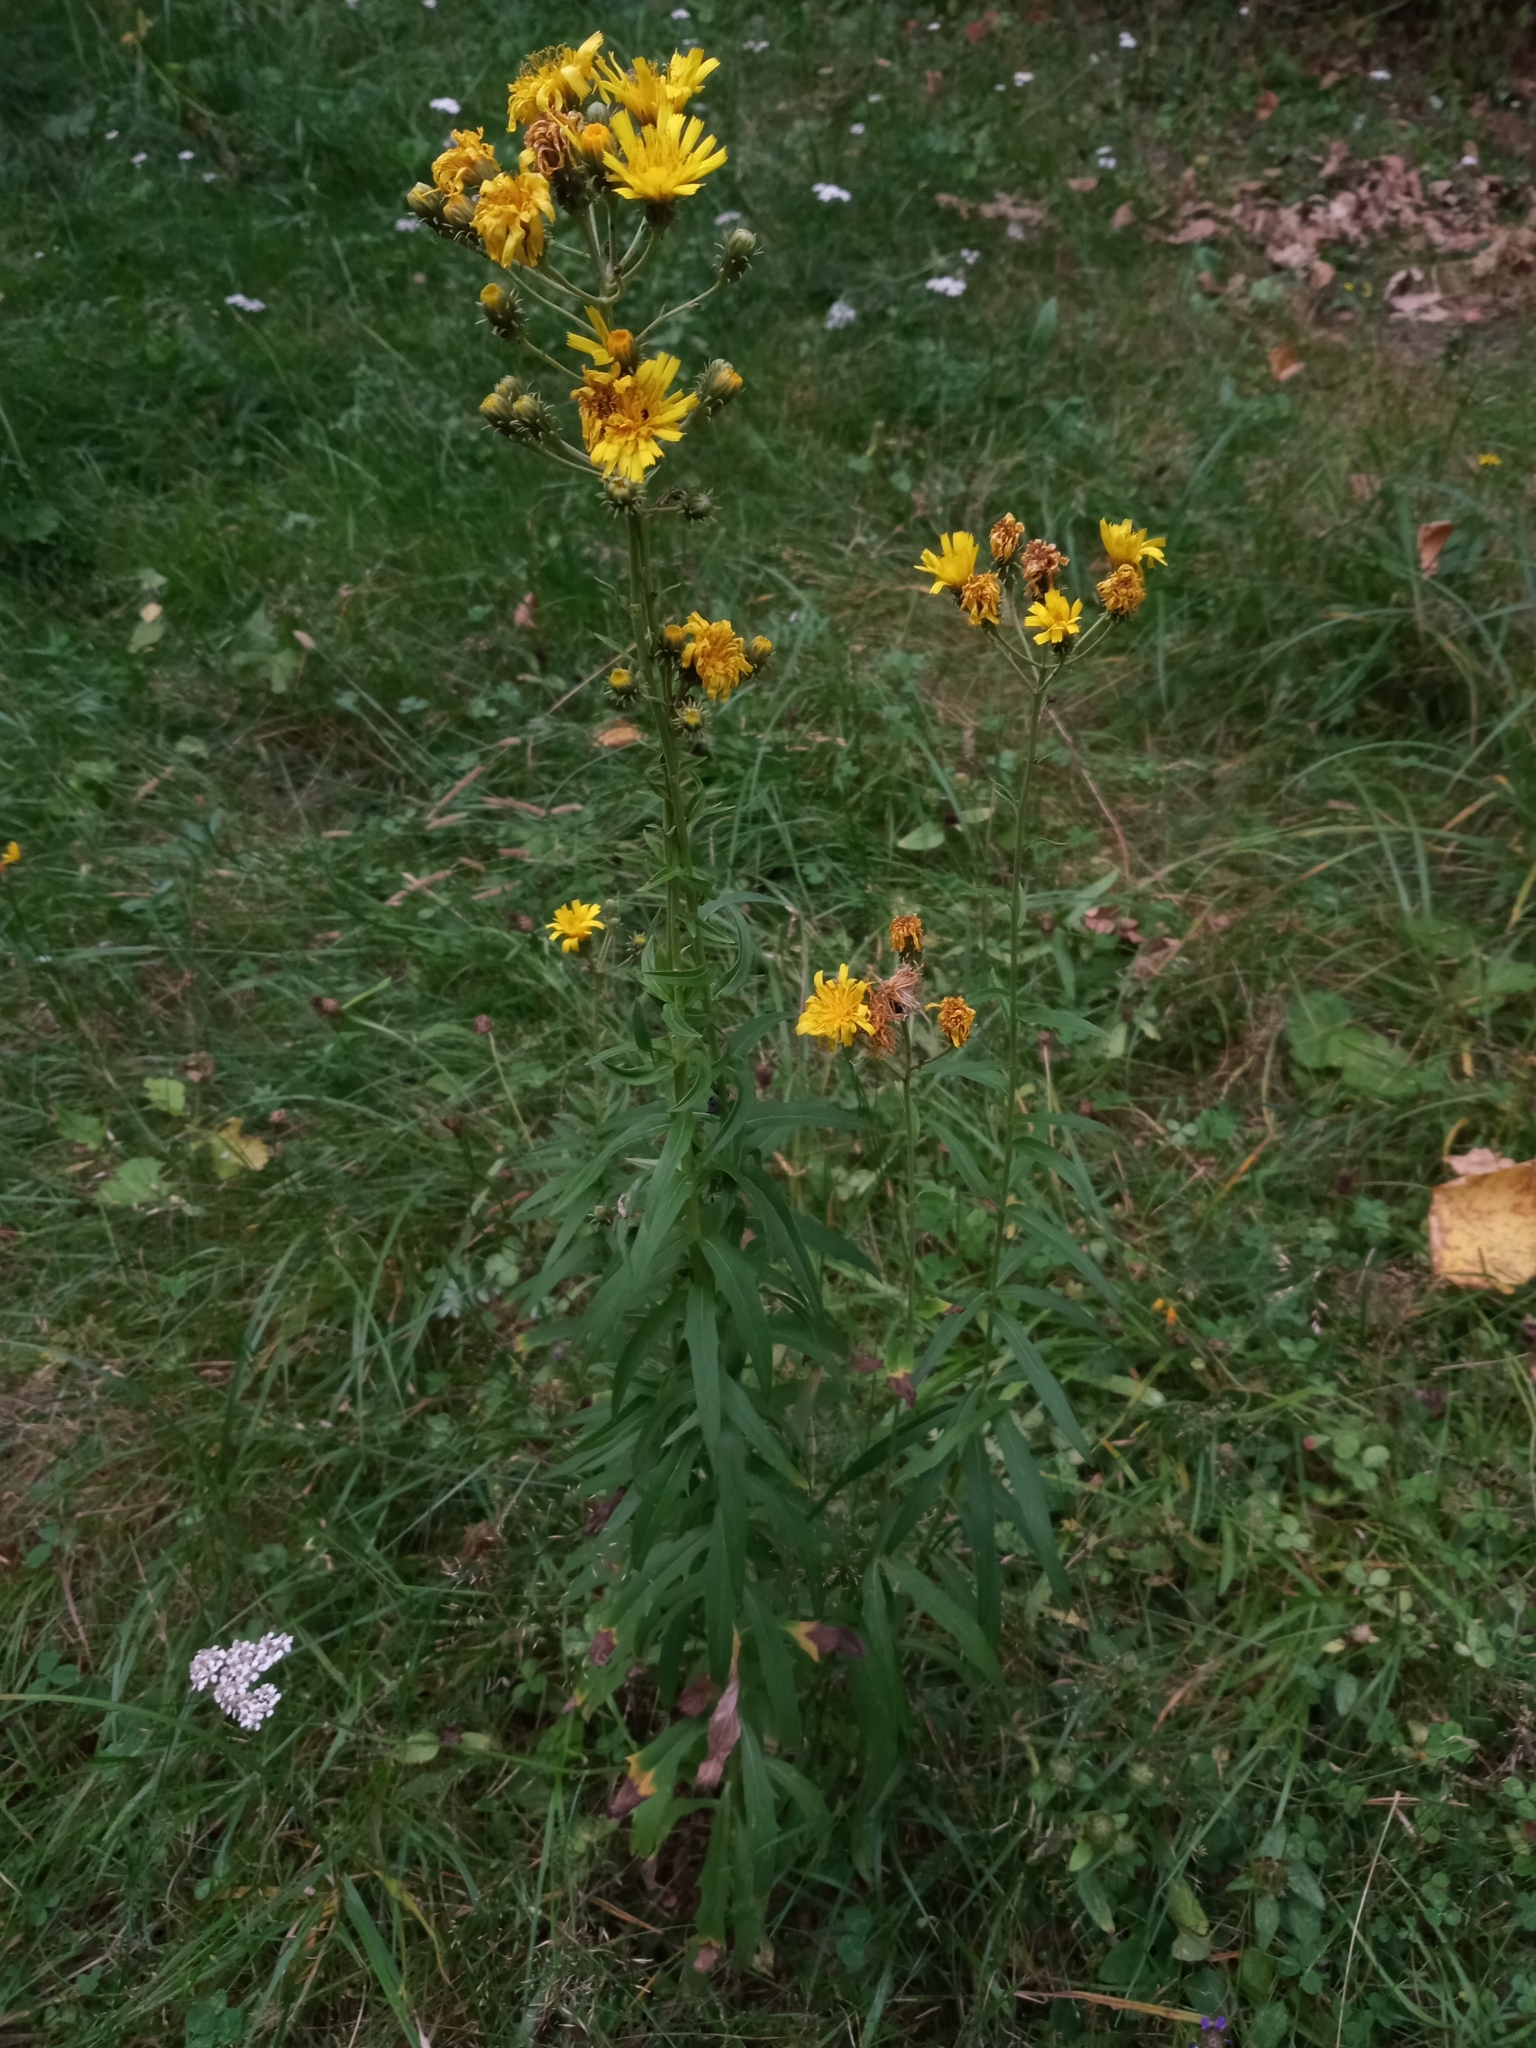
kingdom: Plantae
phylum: Tracheophyta
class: Magnoliopsida
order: Asterales
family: Asteraceae
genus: Hieracium
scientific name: Hieracium umbellatum
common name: Northern hawkweed
